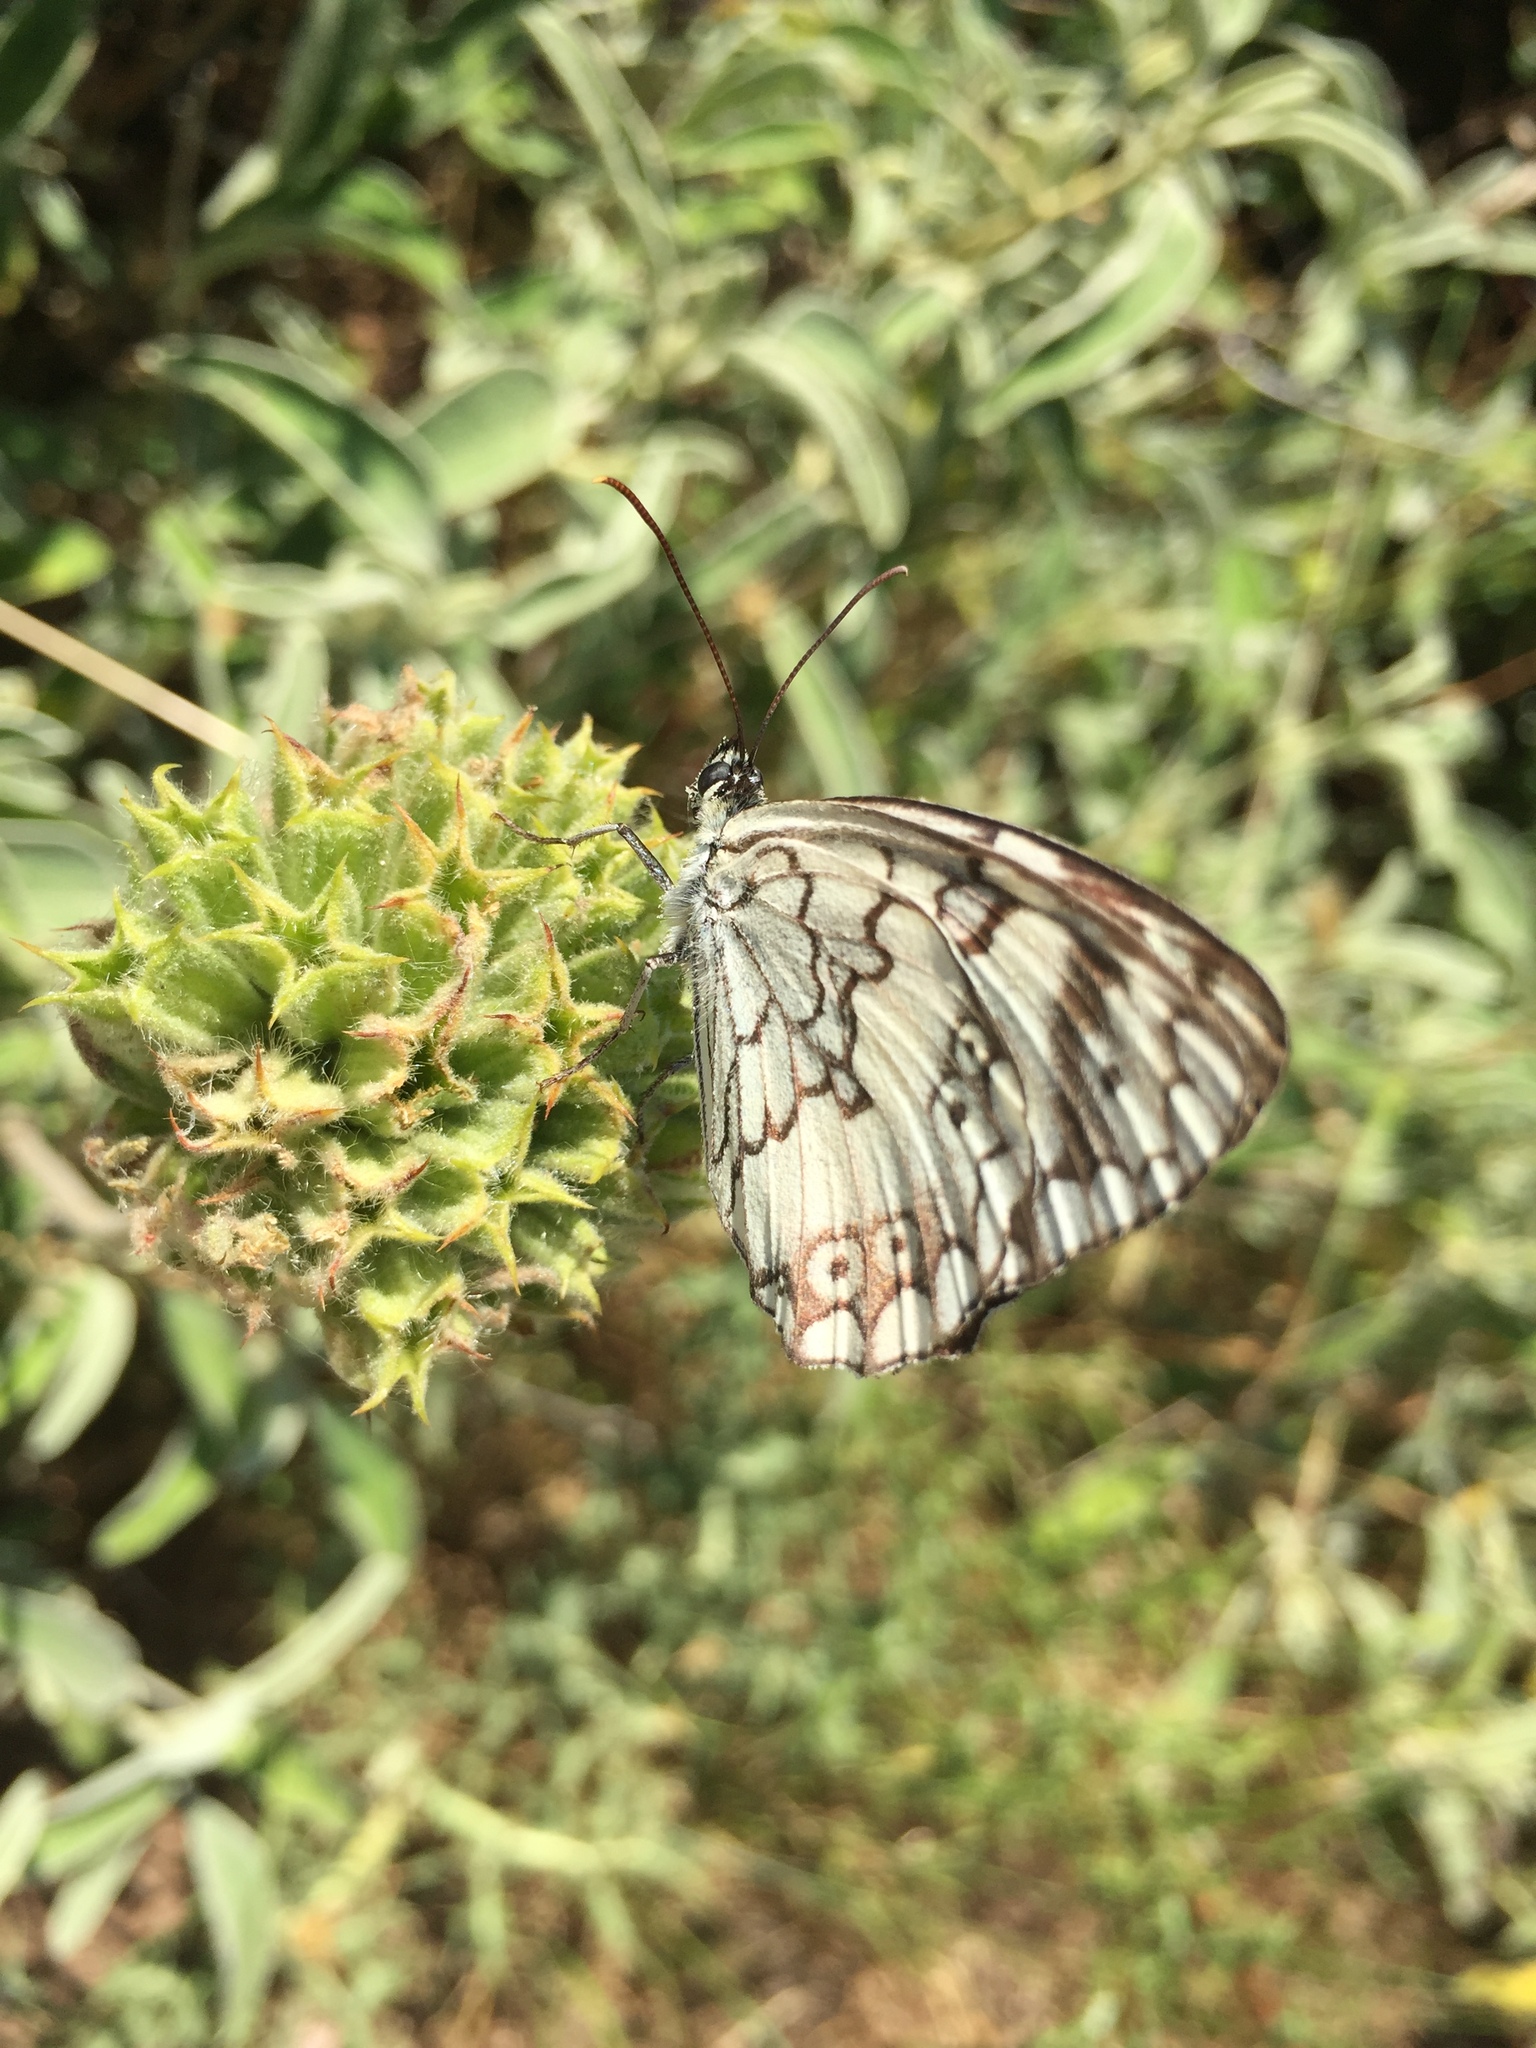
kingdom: Animalia
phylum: Arthropoda
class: Insecta
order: Lepidoptera
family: Nymphalidae
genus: Melanargia
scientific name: Melanargia larissa
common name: Balkan marbled white
